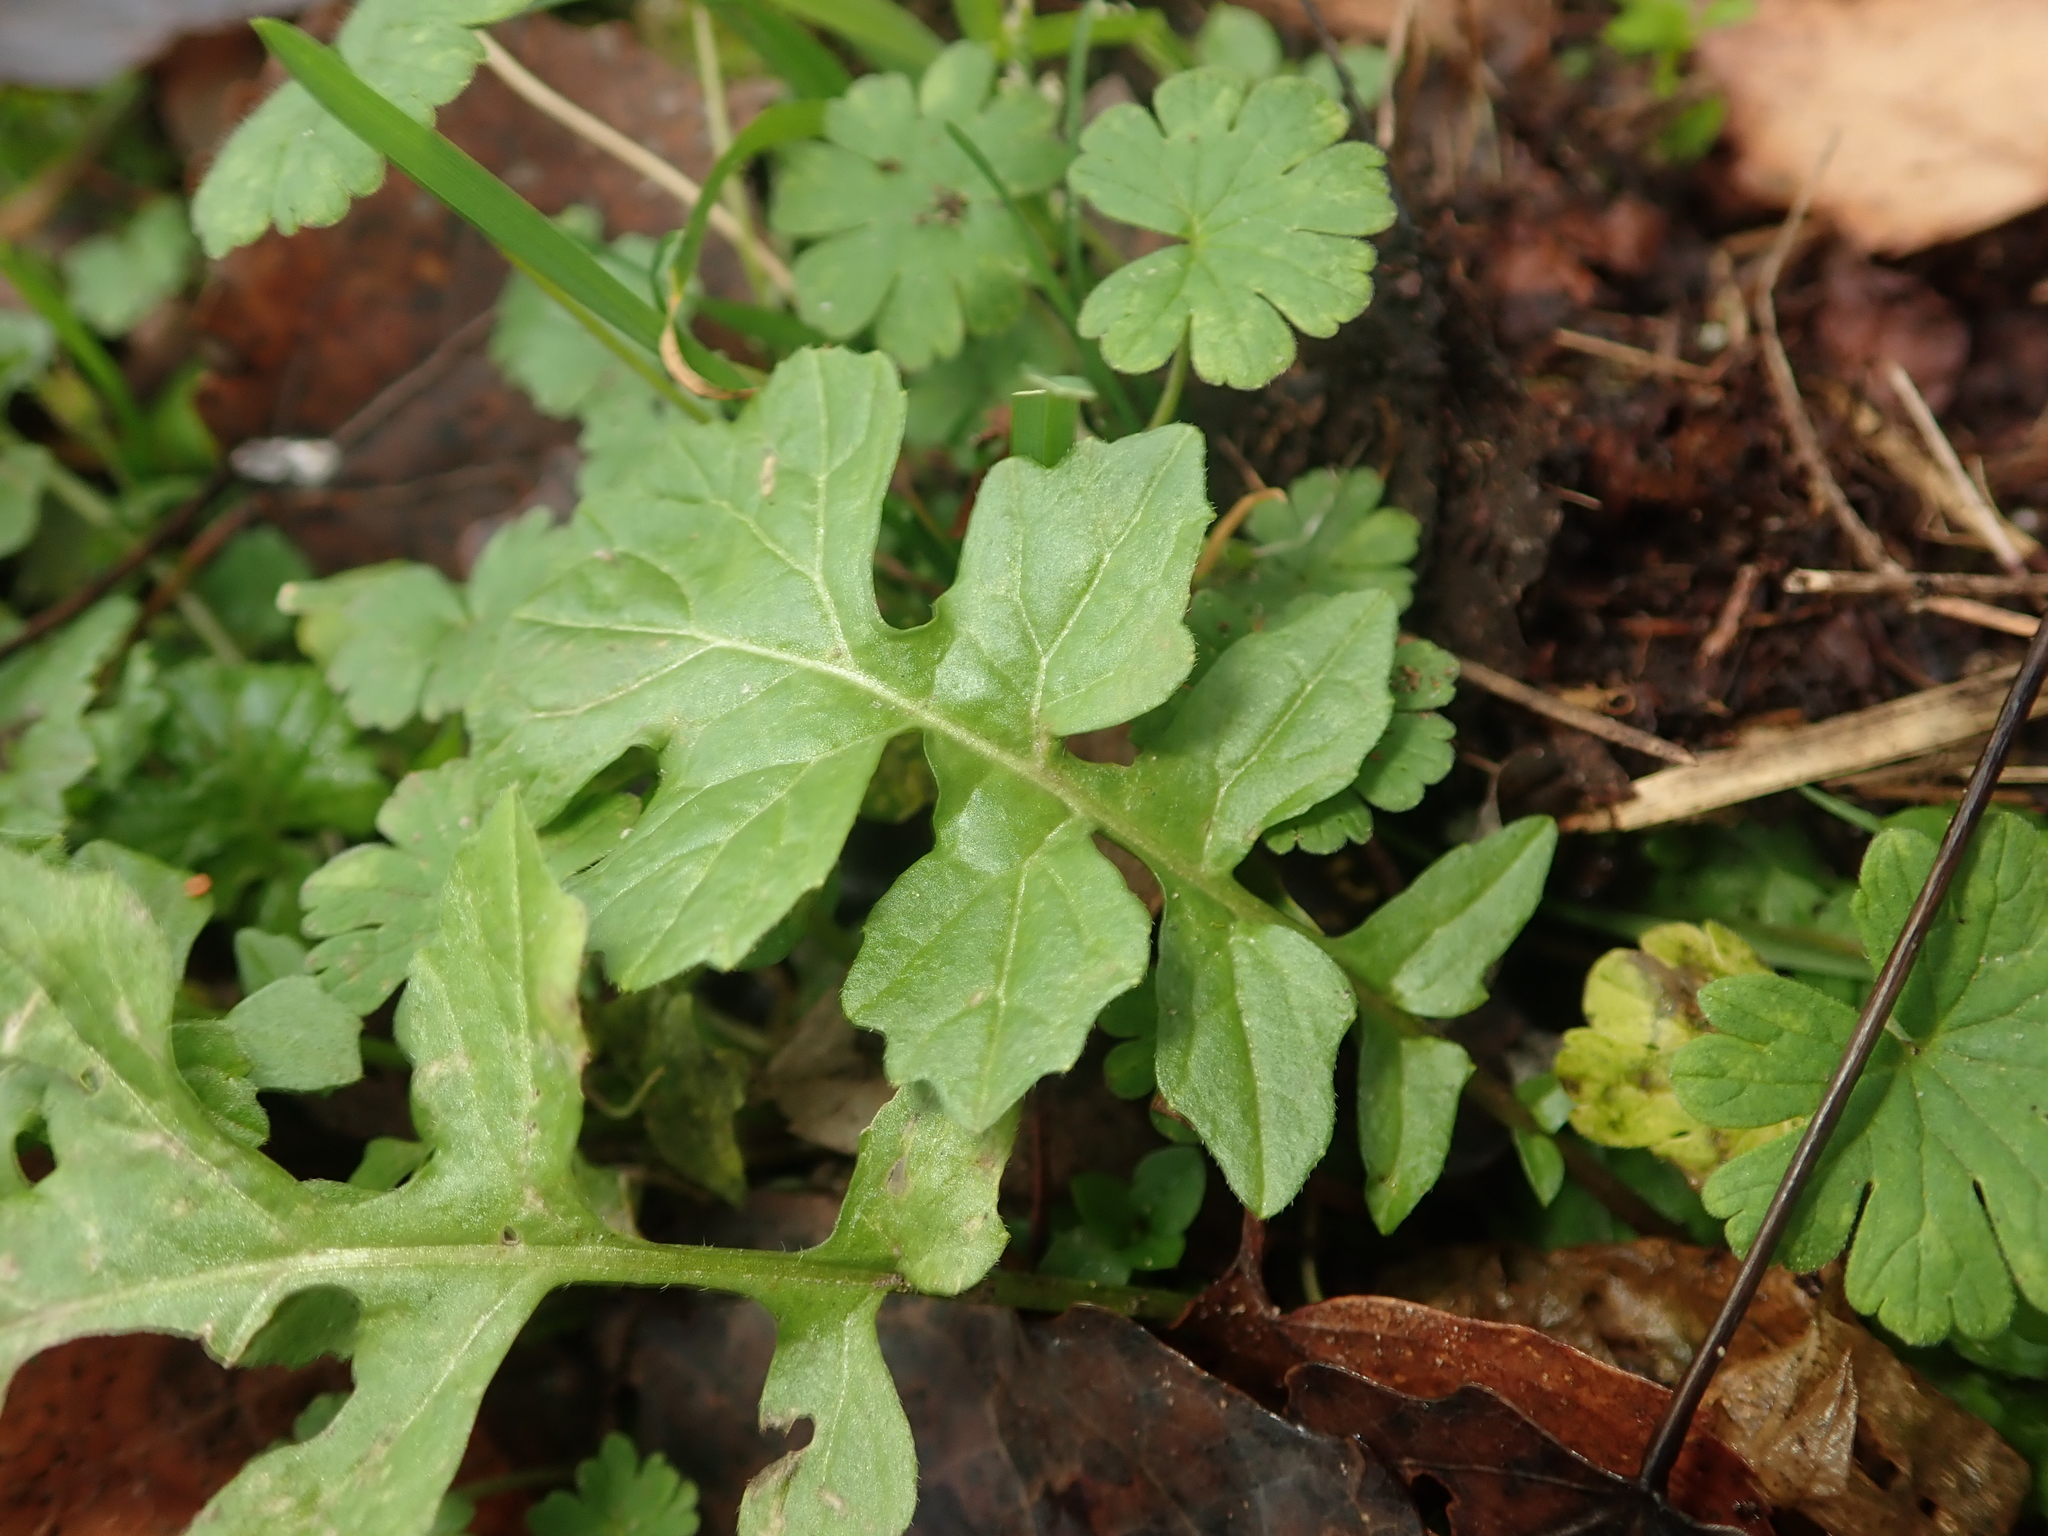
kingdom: Plantae
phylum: Tracheophyta
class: Magnoliopsida
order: Brassicales
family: Brassicaceae
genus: Rorippa
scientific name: Rorippa palustris
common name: Marsh yellow-cress
